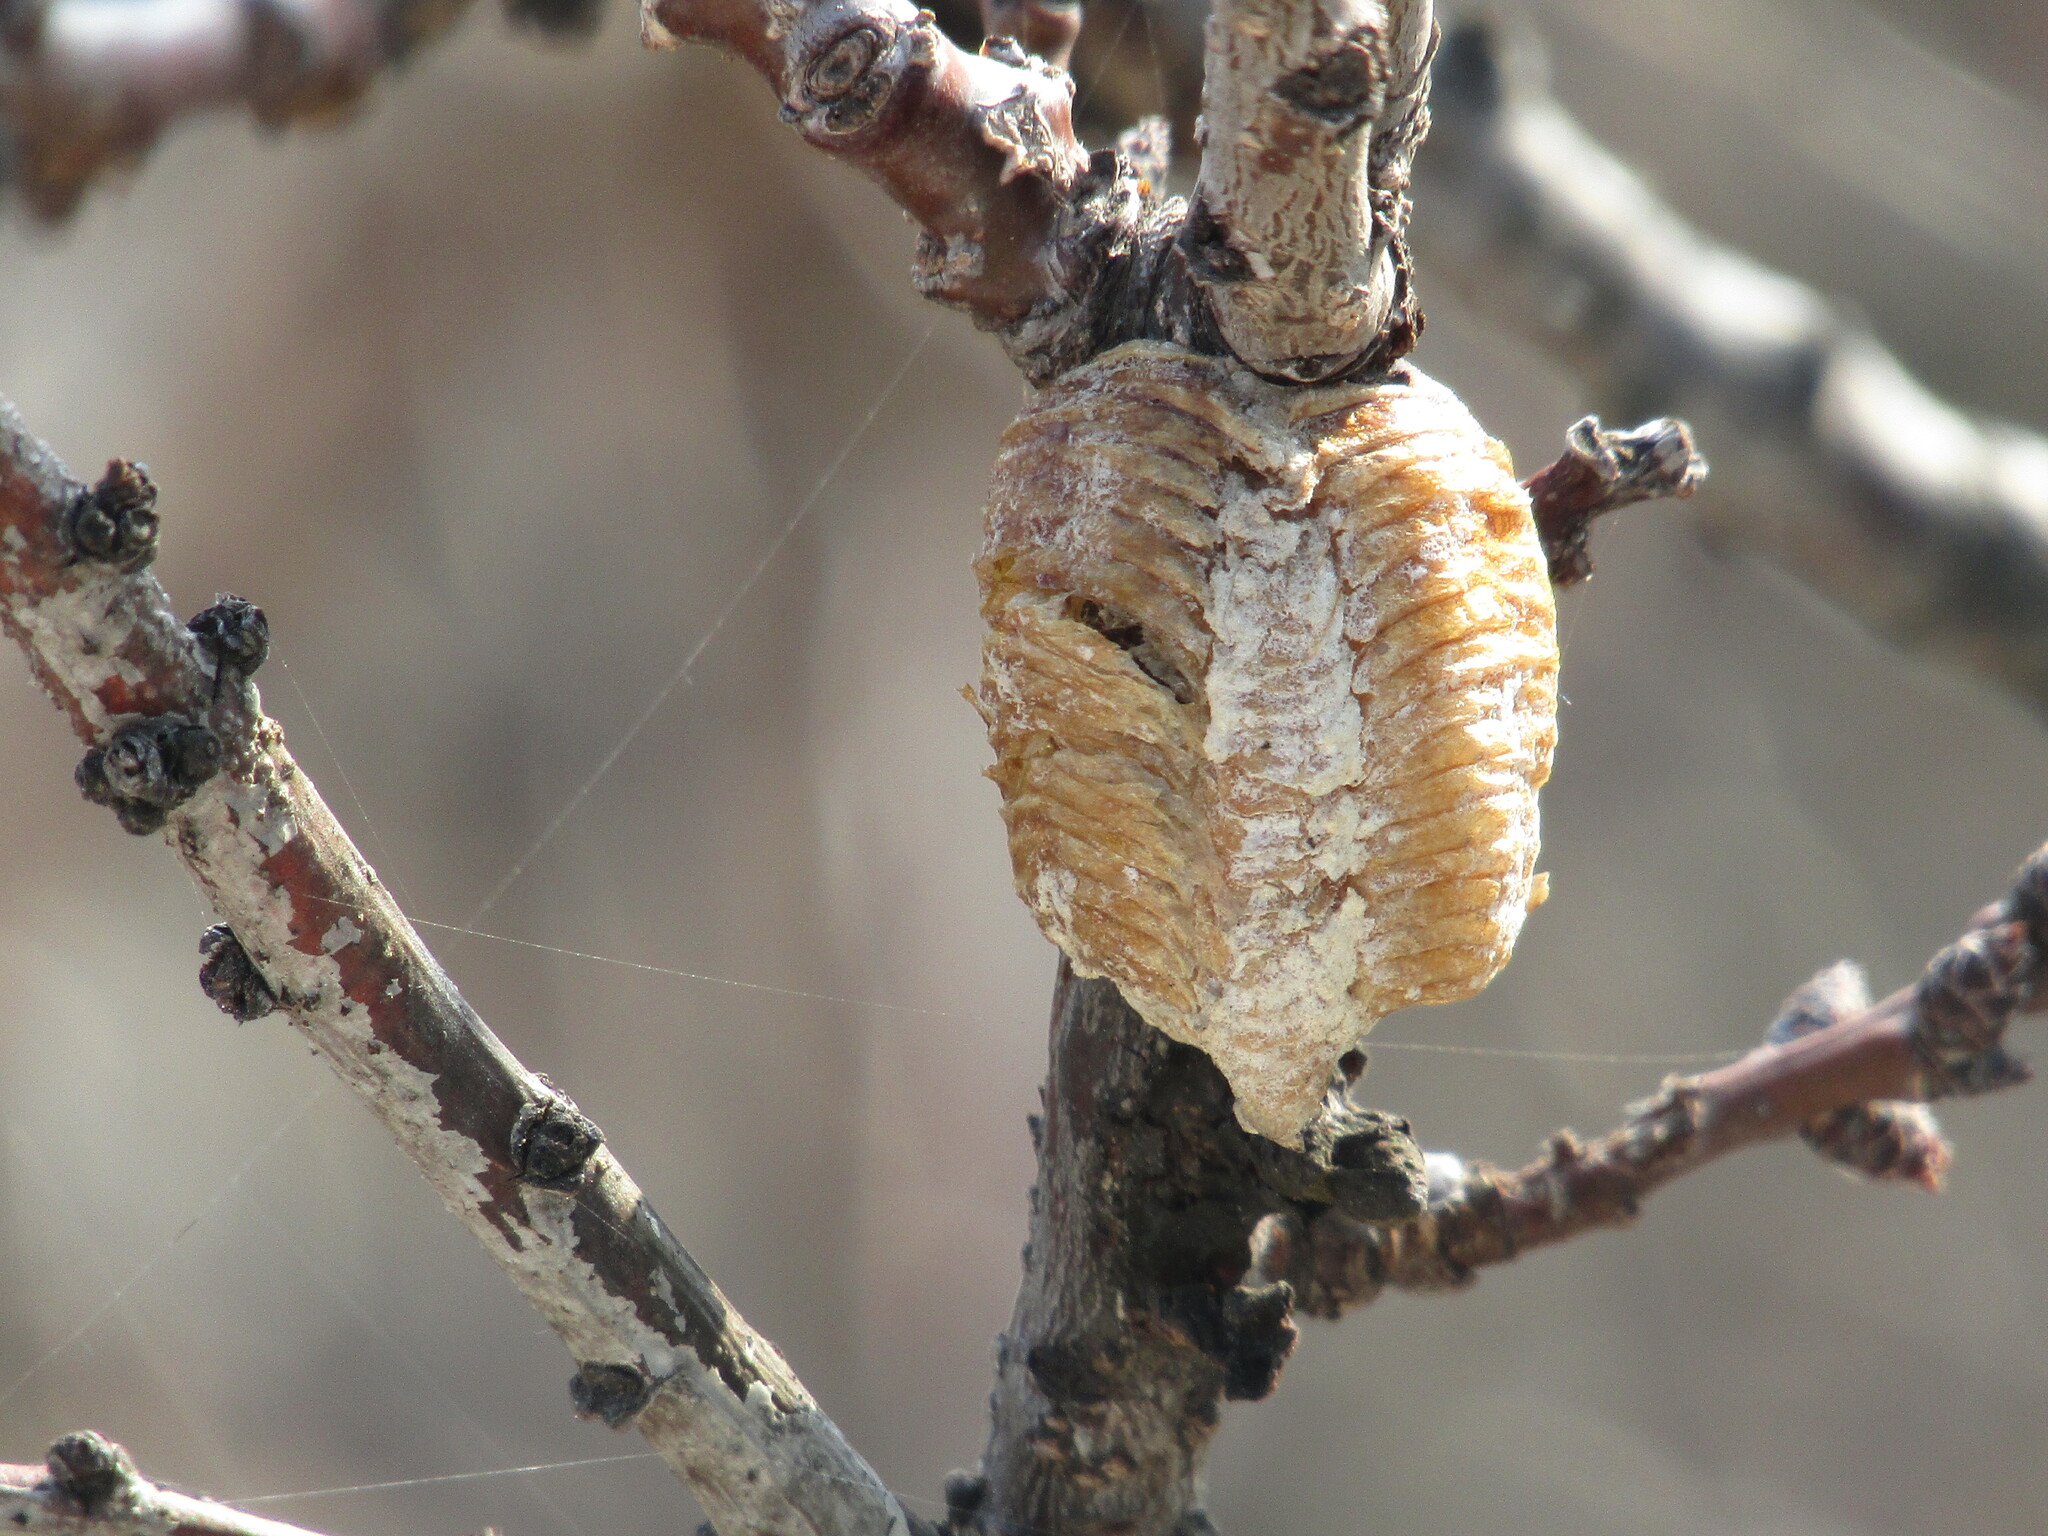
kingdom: Animalia
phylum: Arthropoda
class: Insecta
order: Mantodea
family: Mantidae
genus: Hierodula
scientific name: Hierodula transcaucasica
